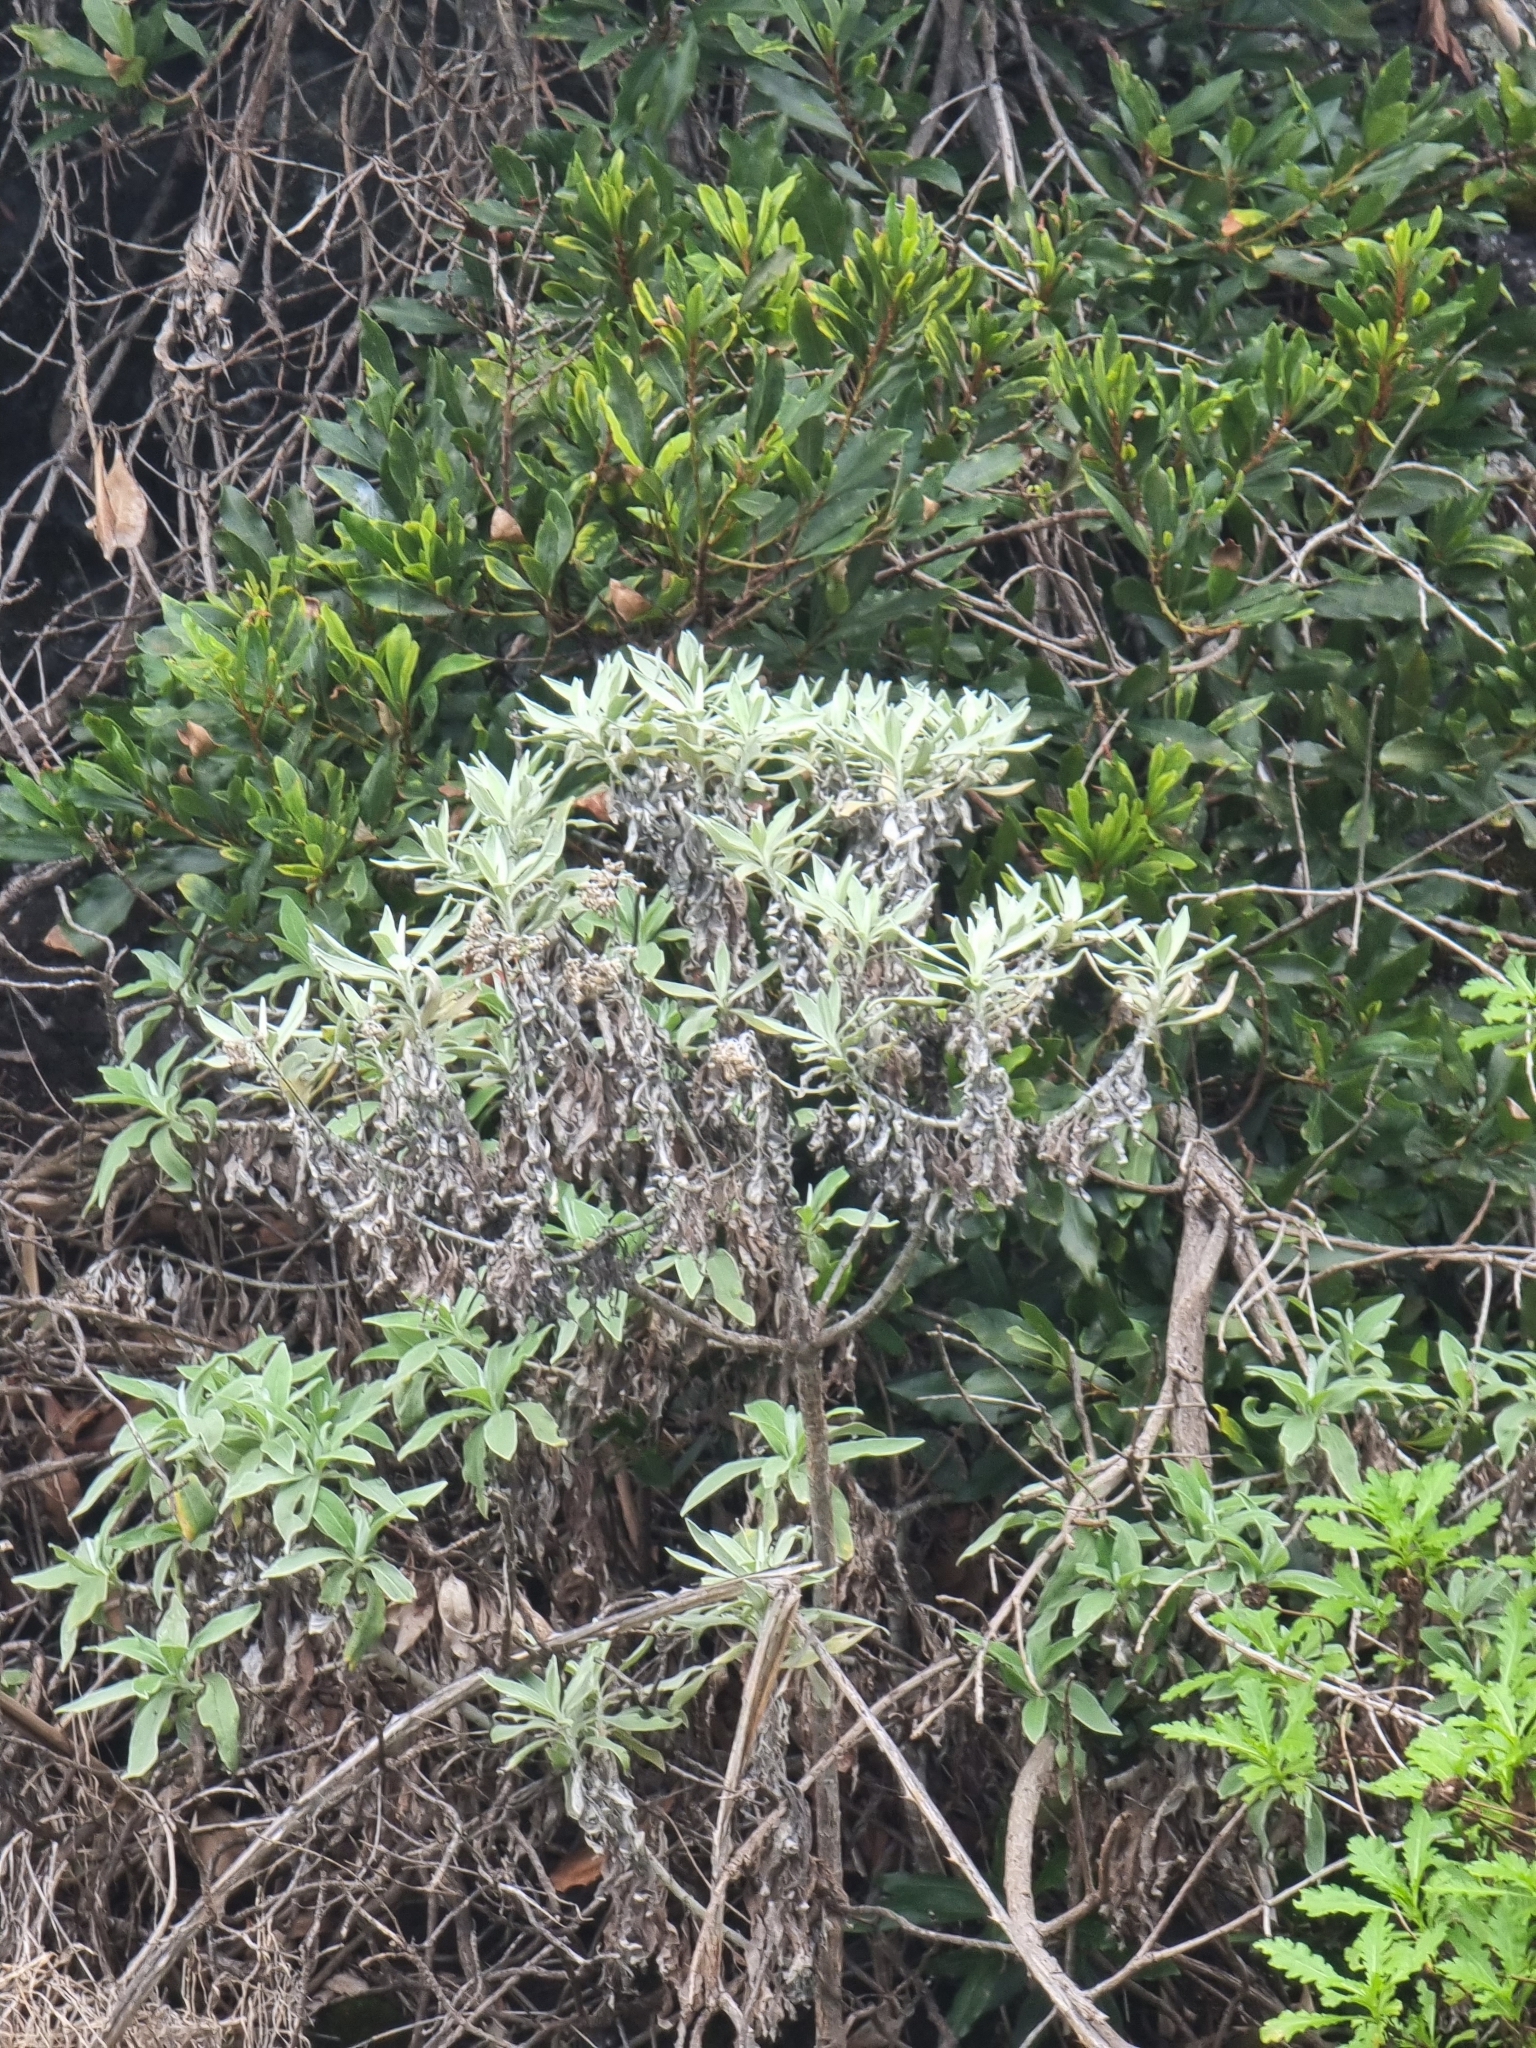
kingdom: Plantae
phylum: Tracheophyta
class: Magnoliopsida
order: Asterales
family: Asteraceae
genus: Helichrysum
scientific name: Helichrysum melaleucum
